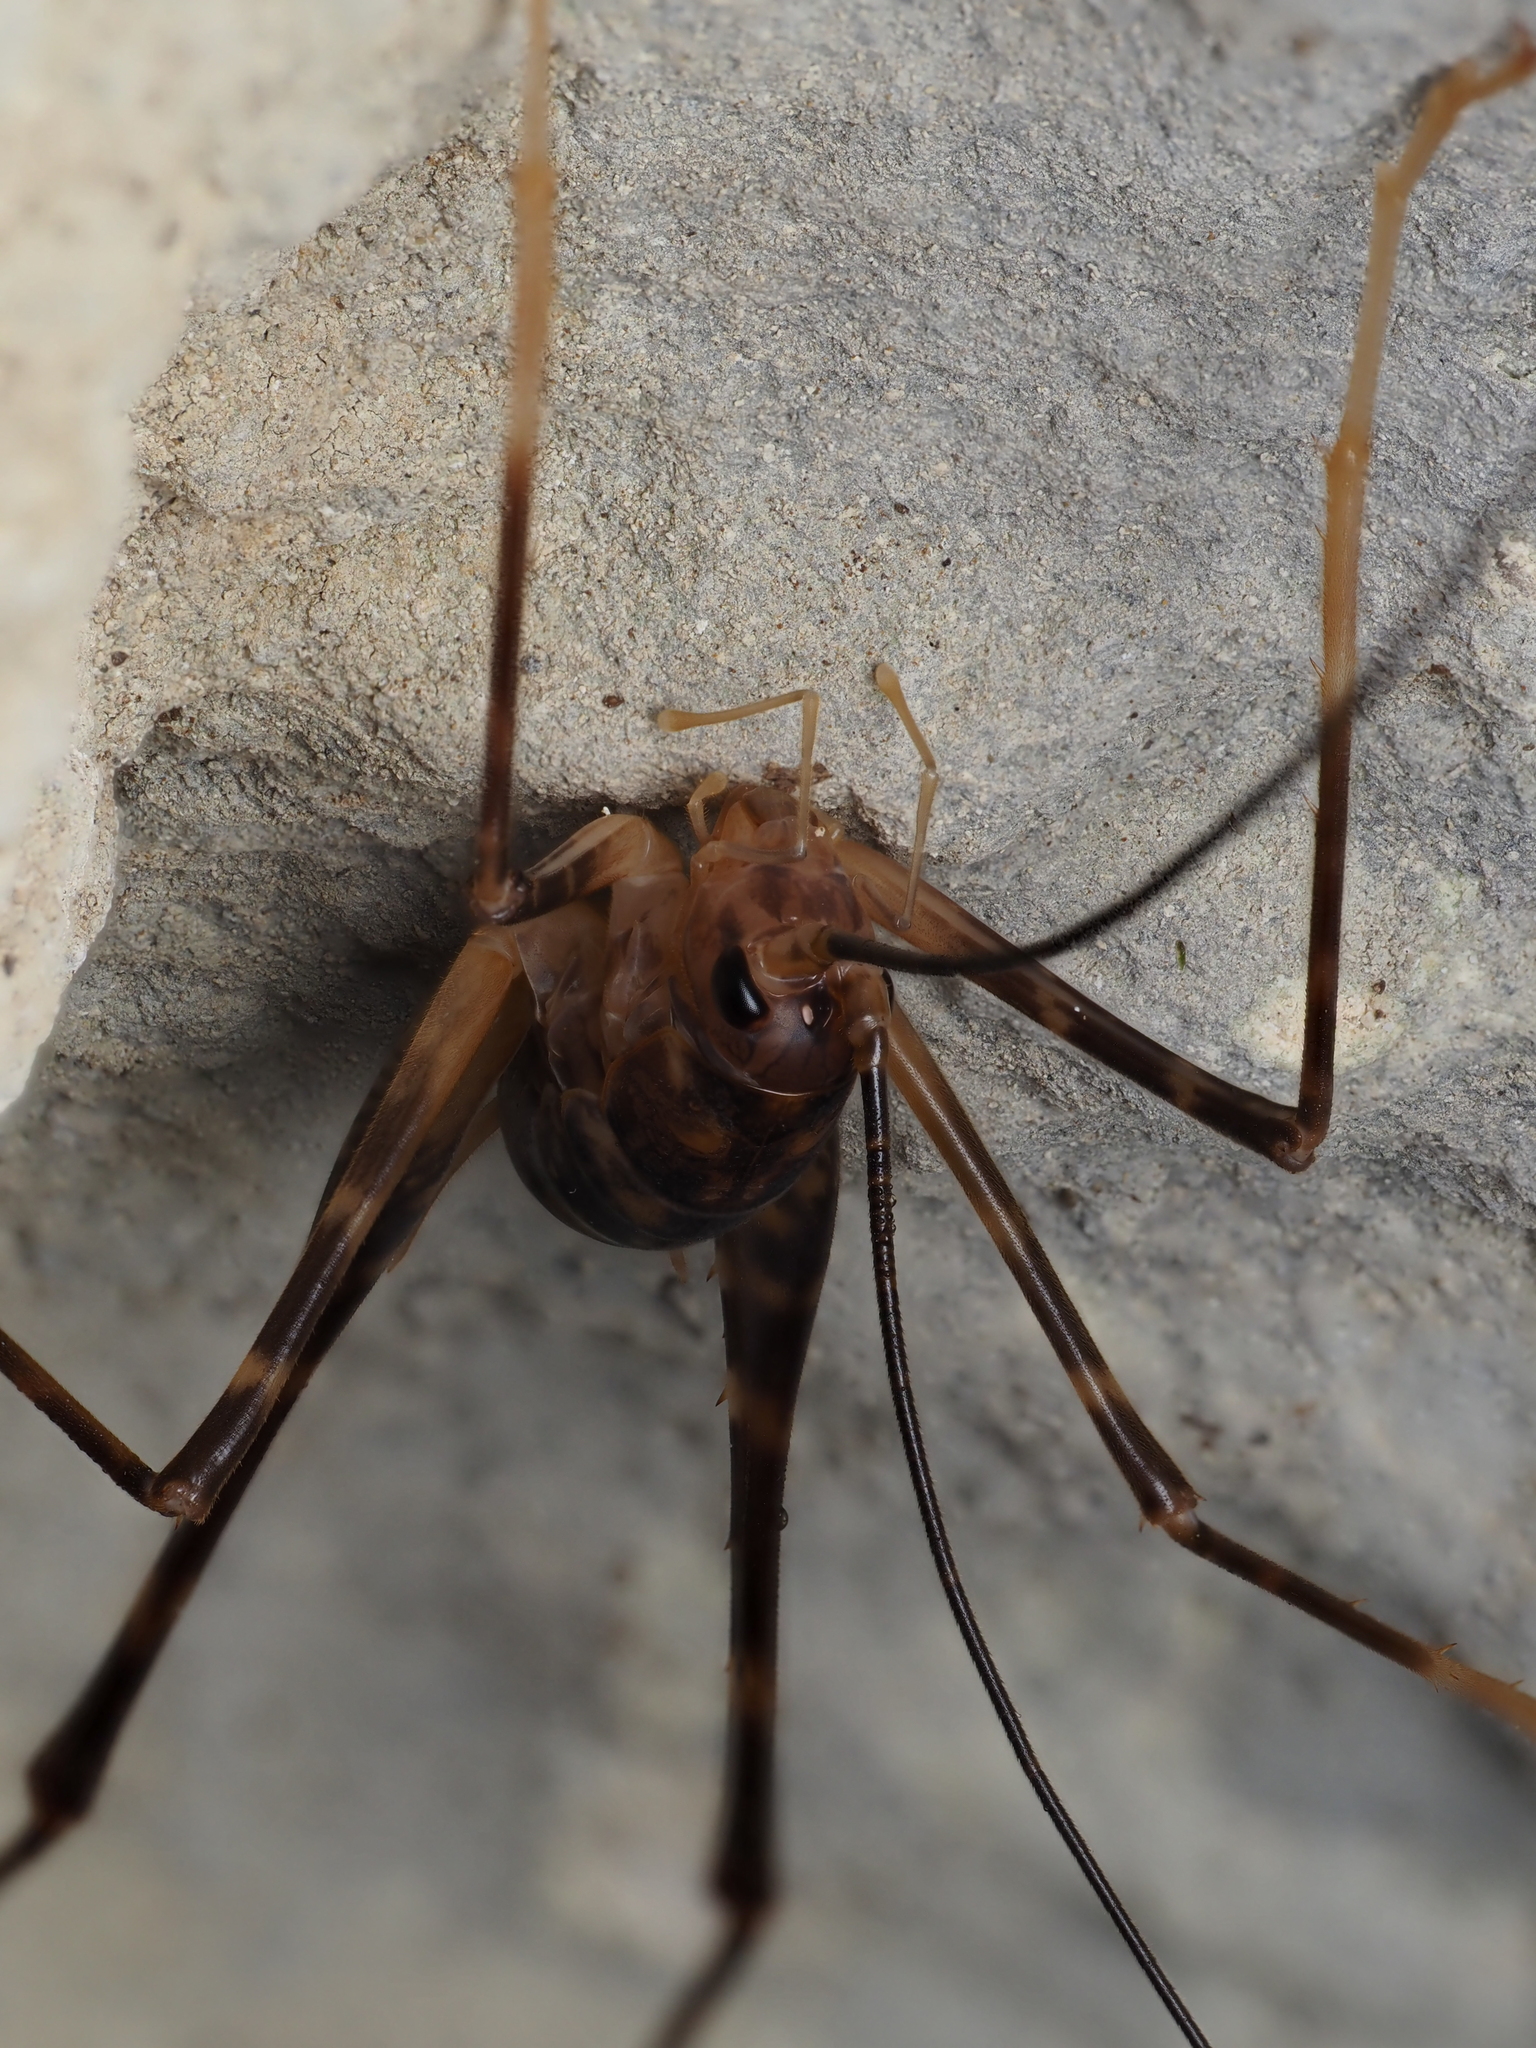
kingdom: Animalia
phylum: Arthropoda
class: Insecta
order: Orthoptera
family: Rhaphidophoridae
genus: Pachyrhamma
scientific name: Pachyrhamma waitomoensis
